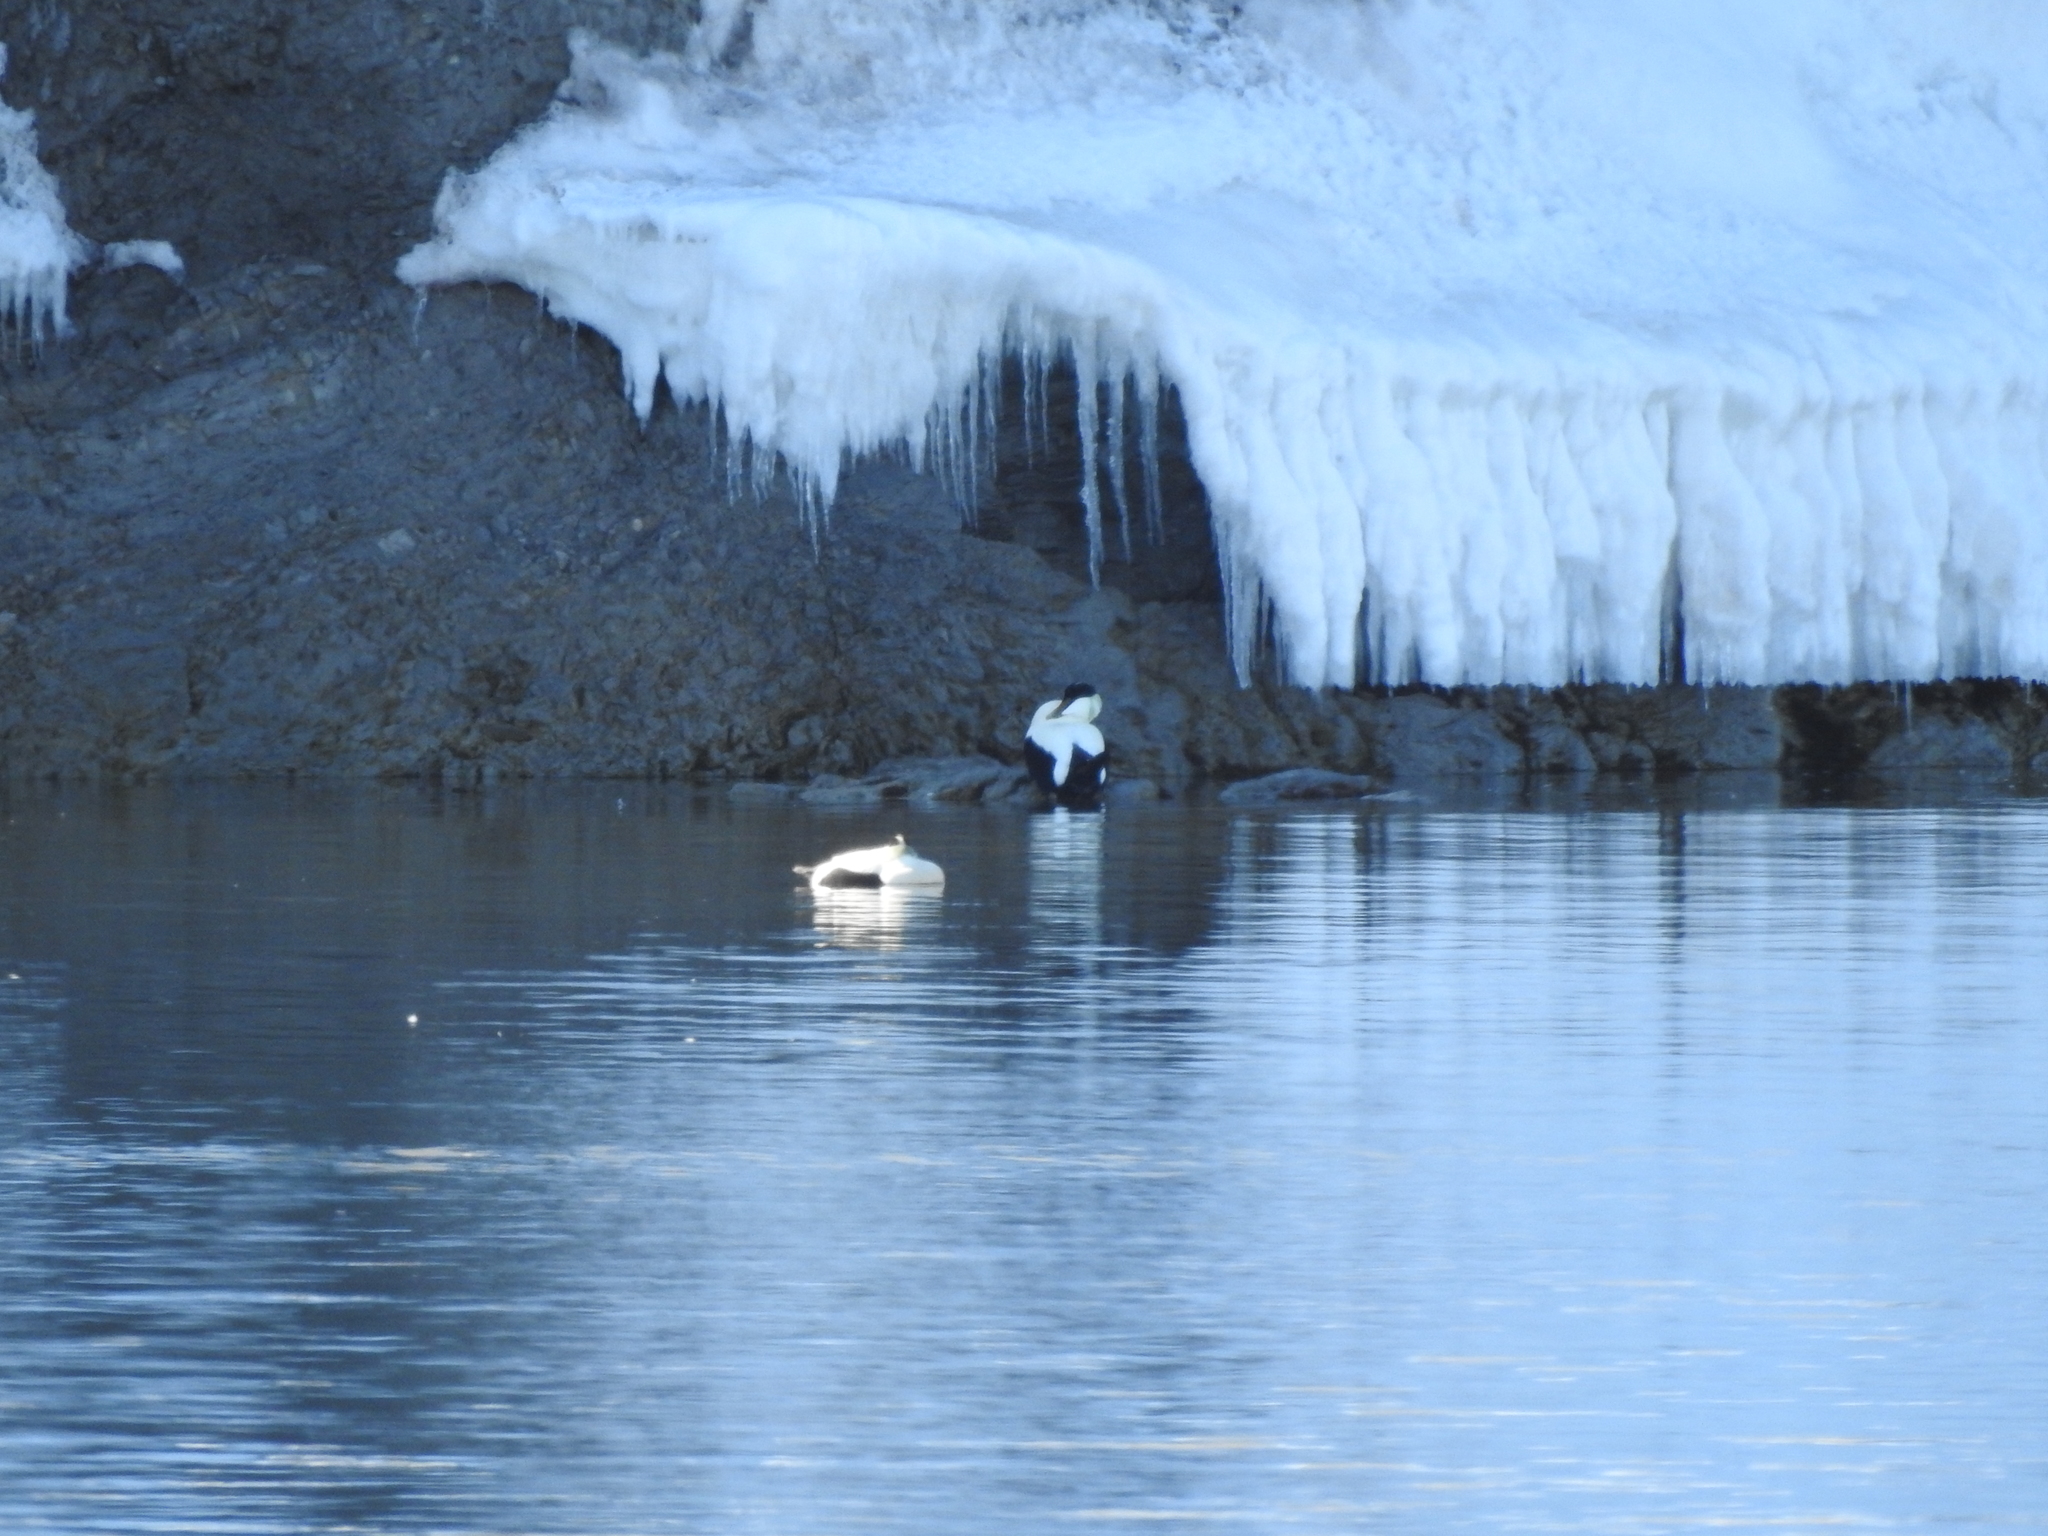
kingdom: Animalia
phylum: Chordata
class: Aves
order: Anseriformes
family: Anatidae
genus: Somateria
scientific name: Somateria mollissima
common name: Common eider
